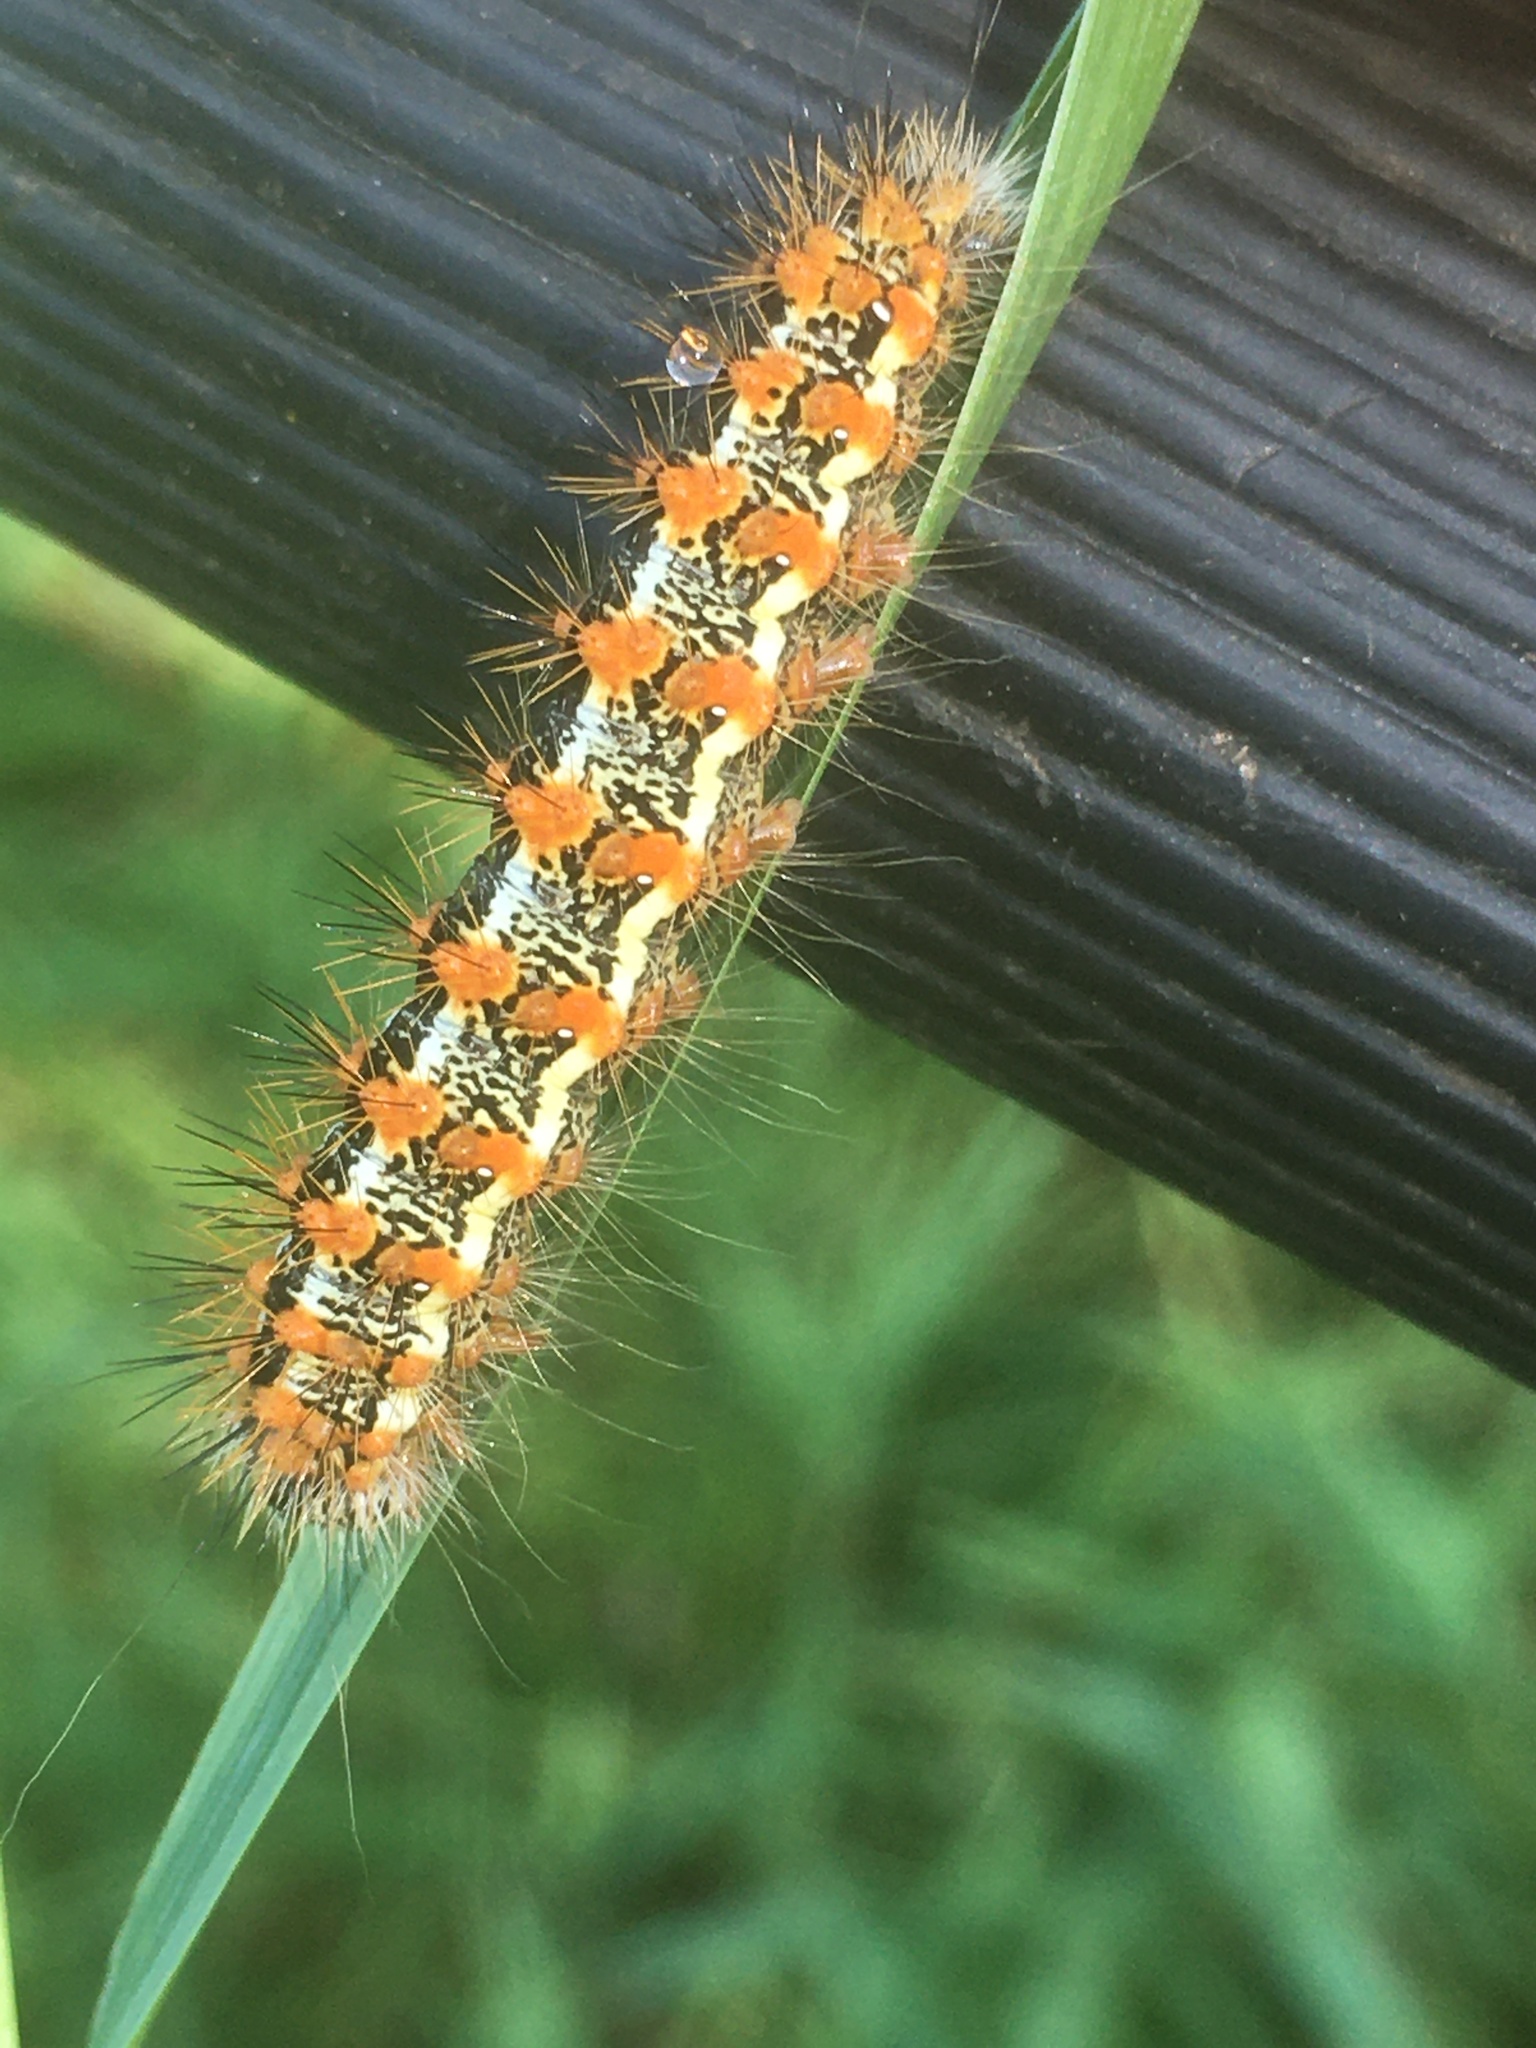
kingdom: Animalia
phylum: Arthropoda
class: Insecta
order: Lepidoptera
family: Noctuidae
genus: Acronicta
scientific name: Acronicta insularis
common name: Henry's marsh moth
